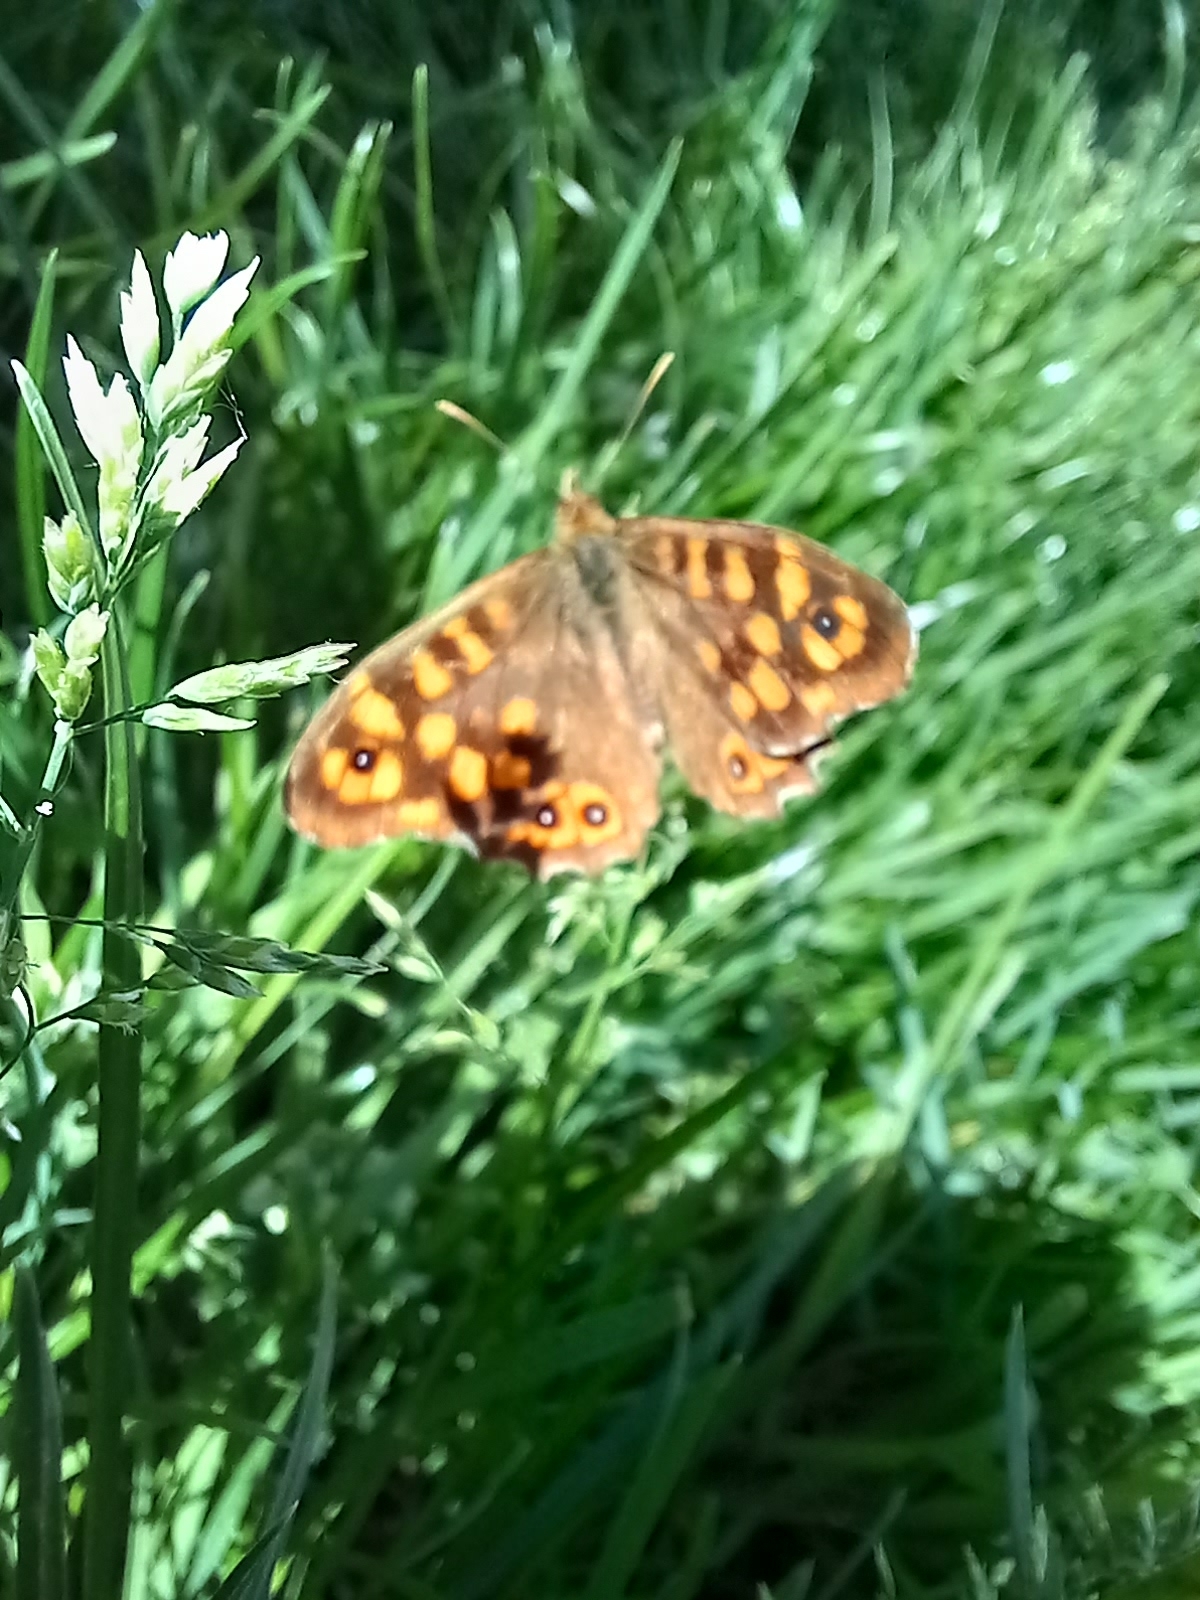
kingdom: Animalia
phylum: Arthropoda
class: Insecta
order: Lepidoptera
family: Nymphalidae
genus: Pararge
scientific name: Pararge aegeria
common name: Speckled wood
